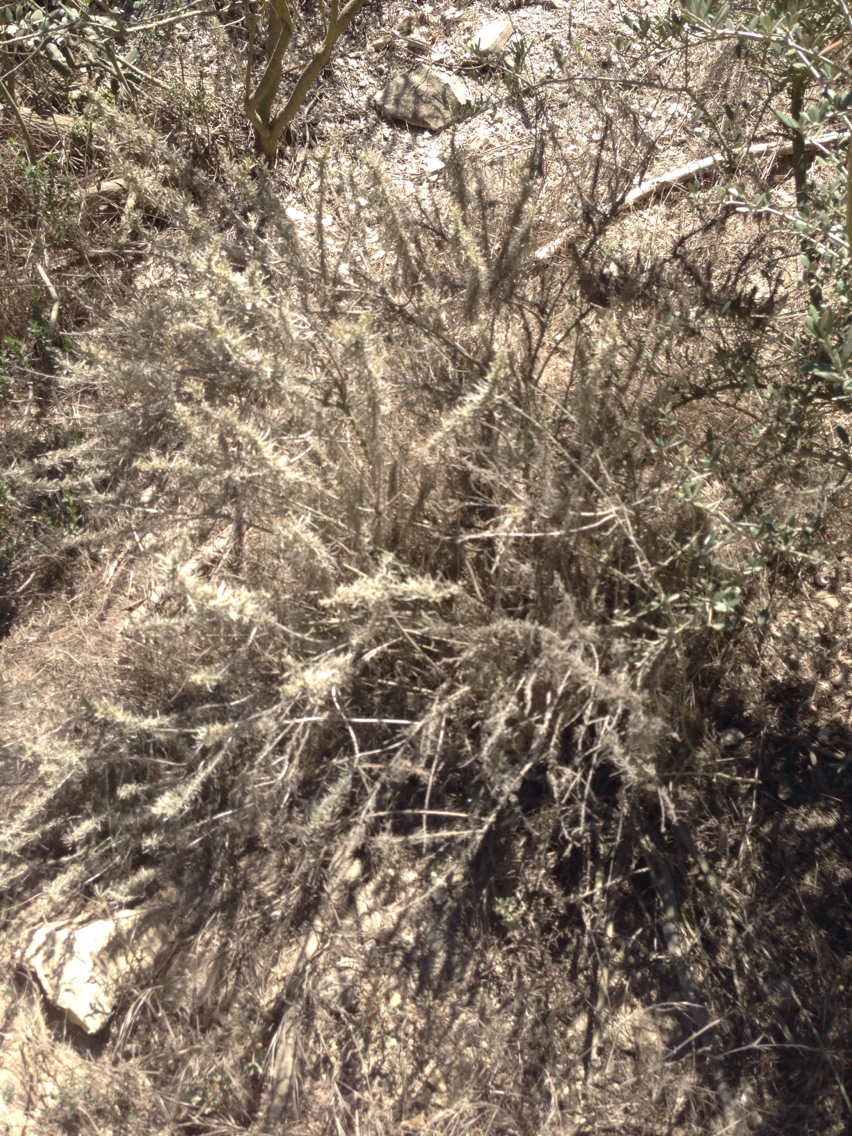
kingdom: Plantae
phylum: Tracheophyta
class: Magnoliopsida
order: Asterales
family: Asteraceae
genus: Artemisia
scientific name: Artemisia californica
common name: California sagebrush
